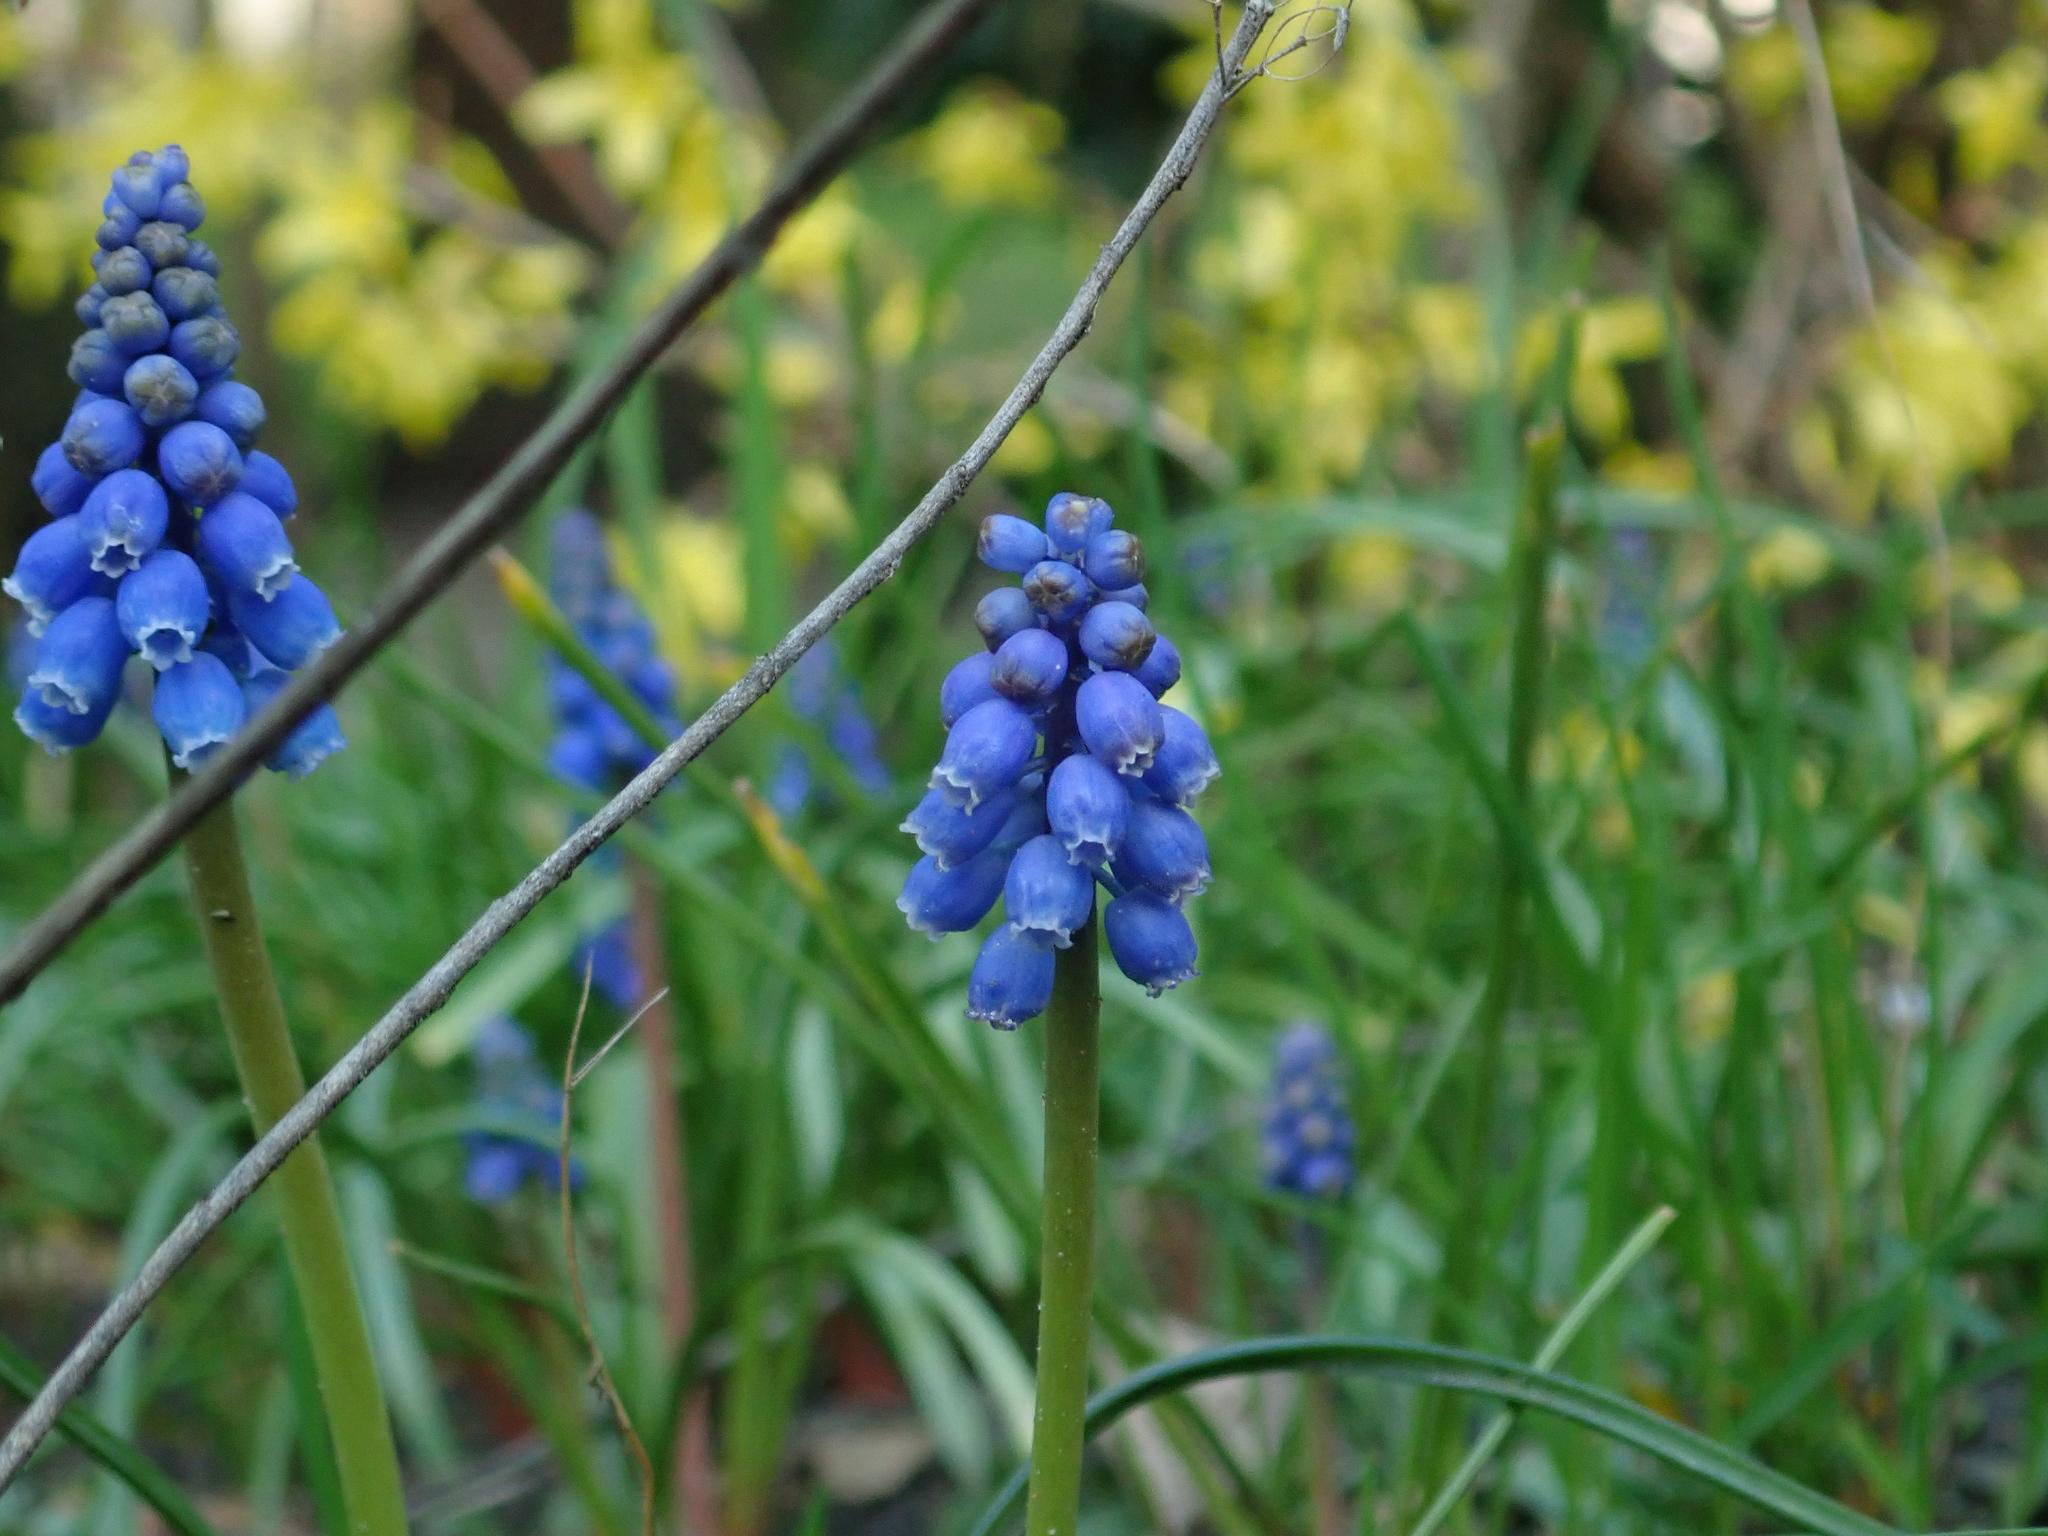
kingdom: Plantae
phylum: Tracheophyta
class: Liliopsida
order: Asparagales
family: Asparagaceae
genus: Muscari
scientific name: Muscari armeniacum
